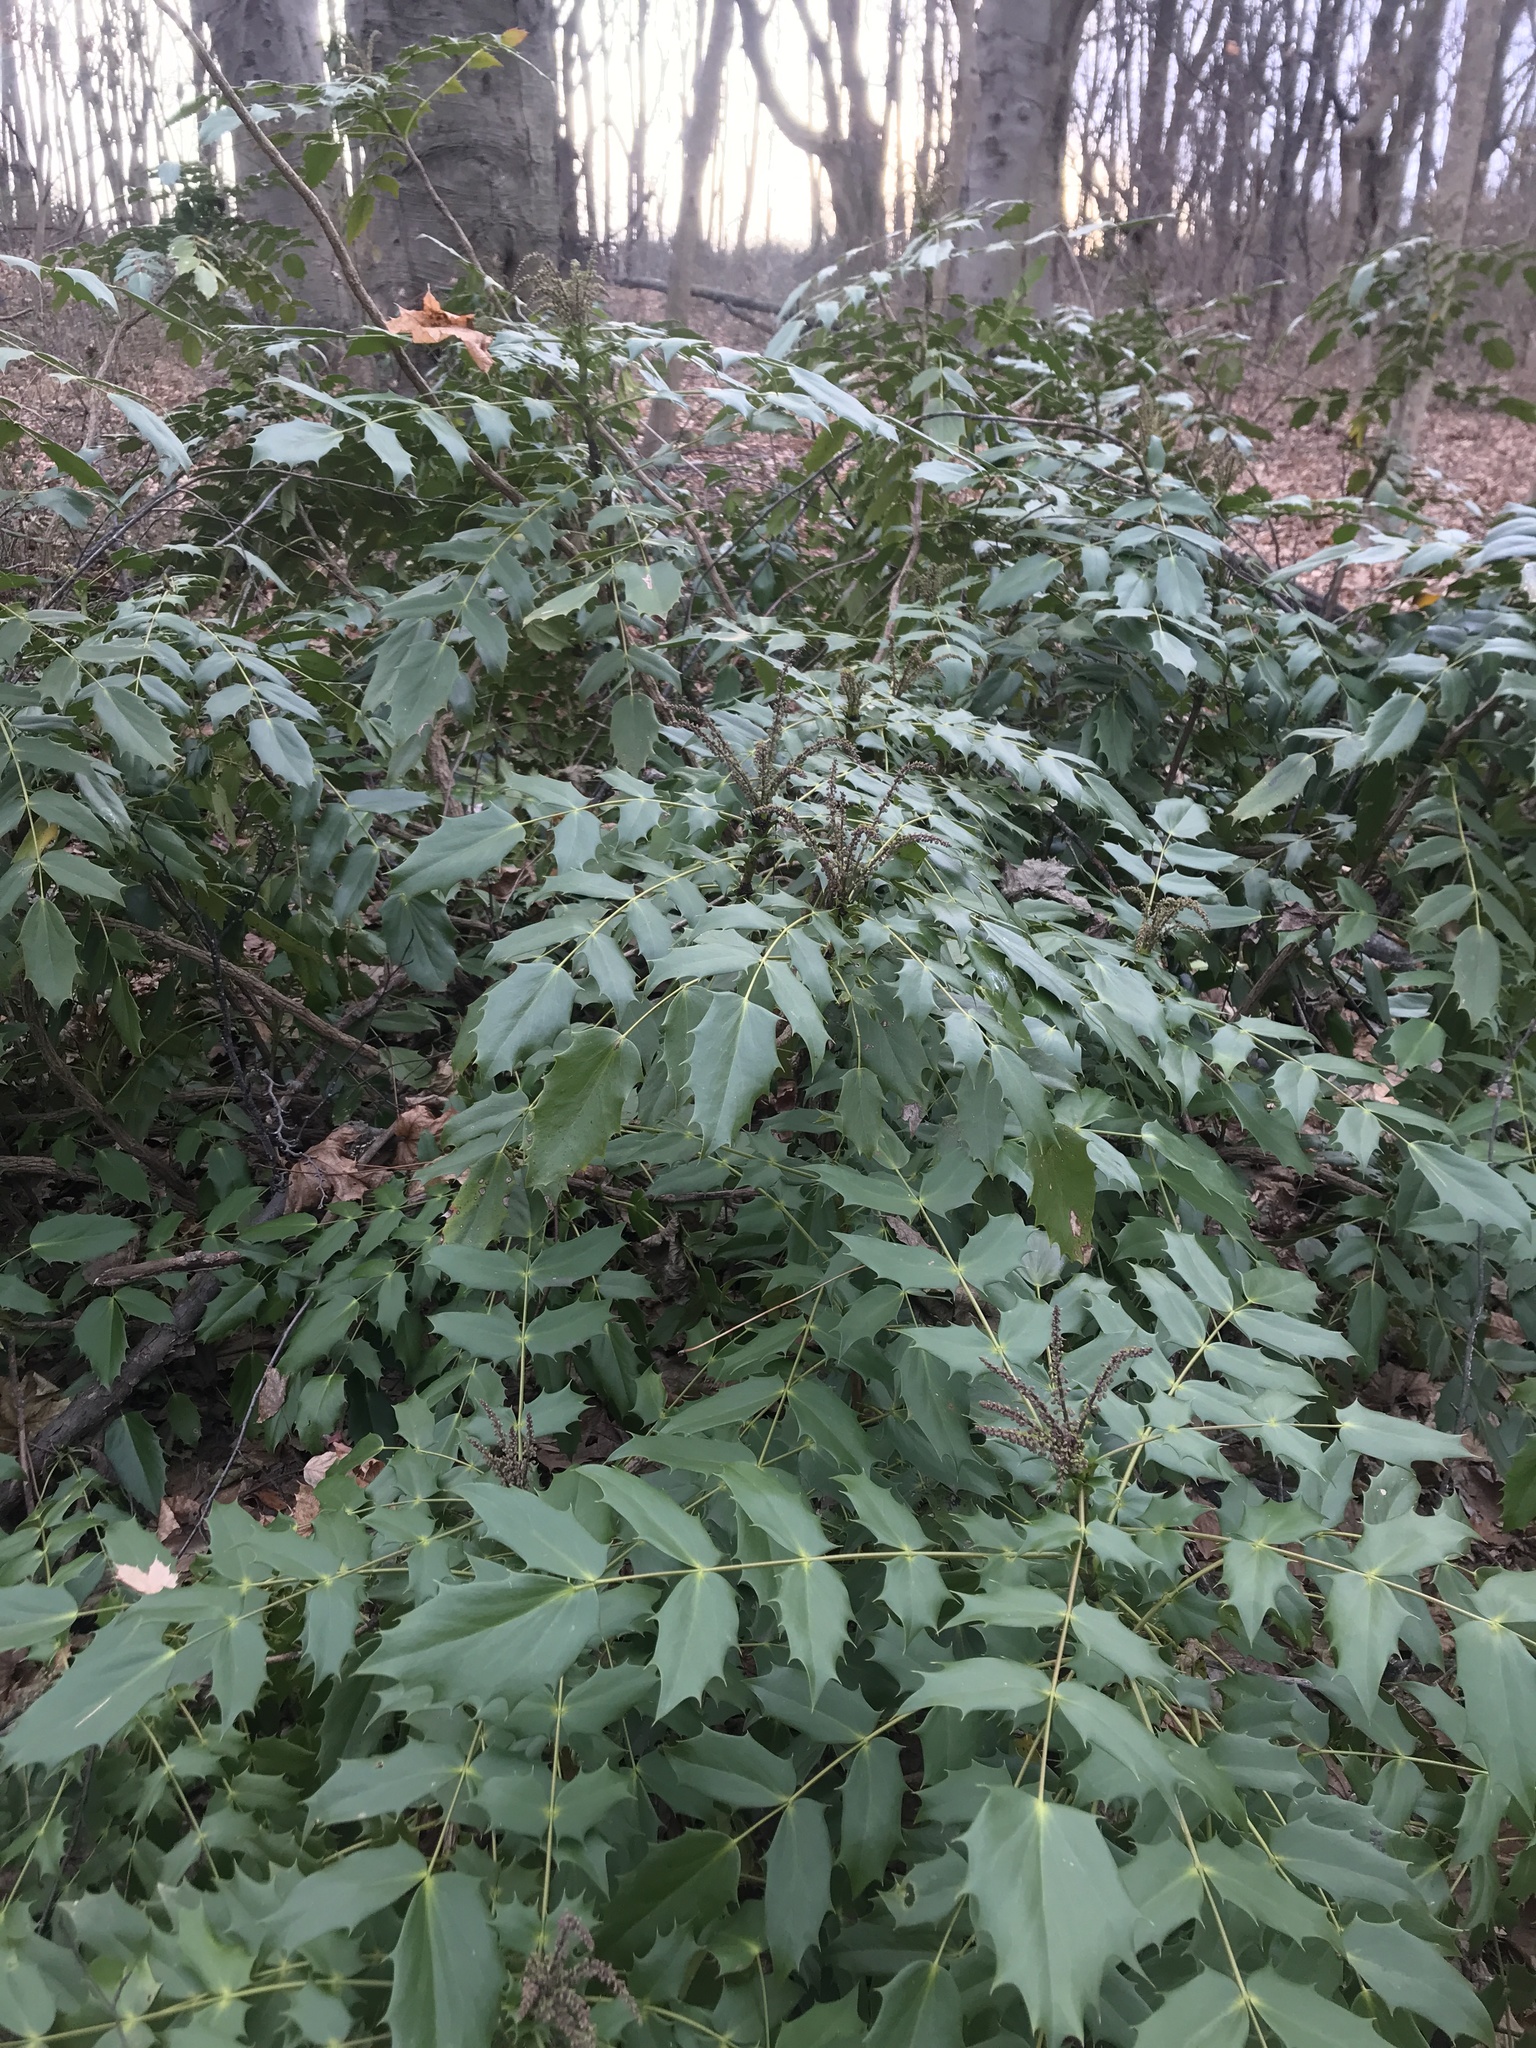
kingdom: Plantae
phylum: Tracheophyta
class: Magnoliopsida
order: Ranunculales
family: Berberidaceae
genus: Mahonia
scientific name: Mahonia bealei
